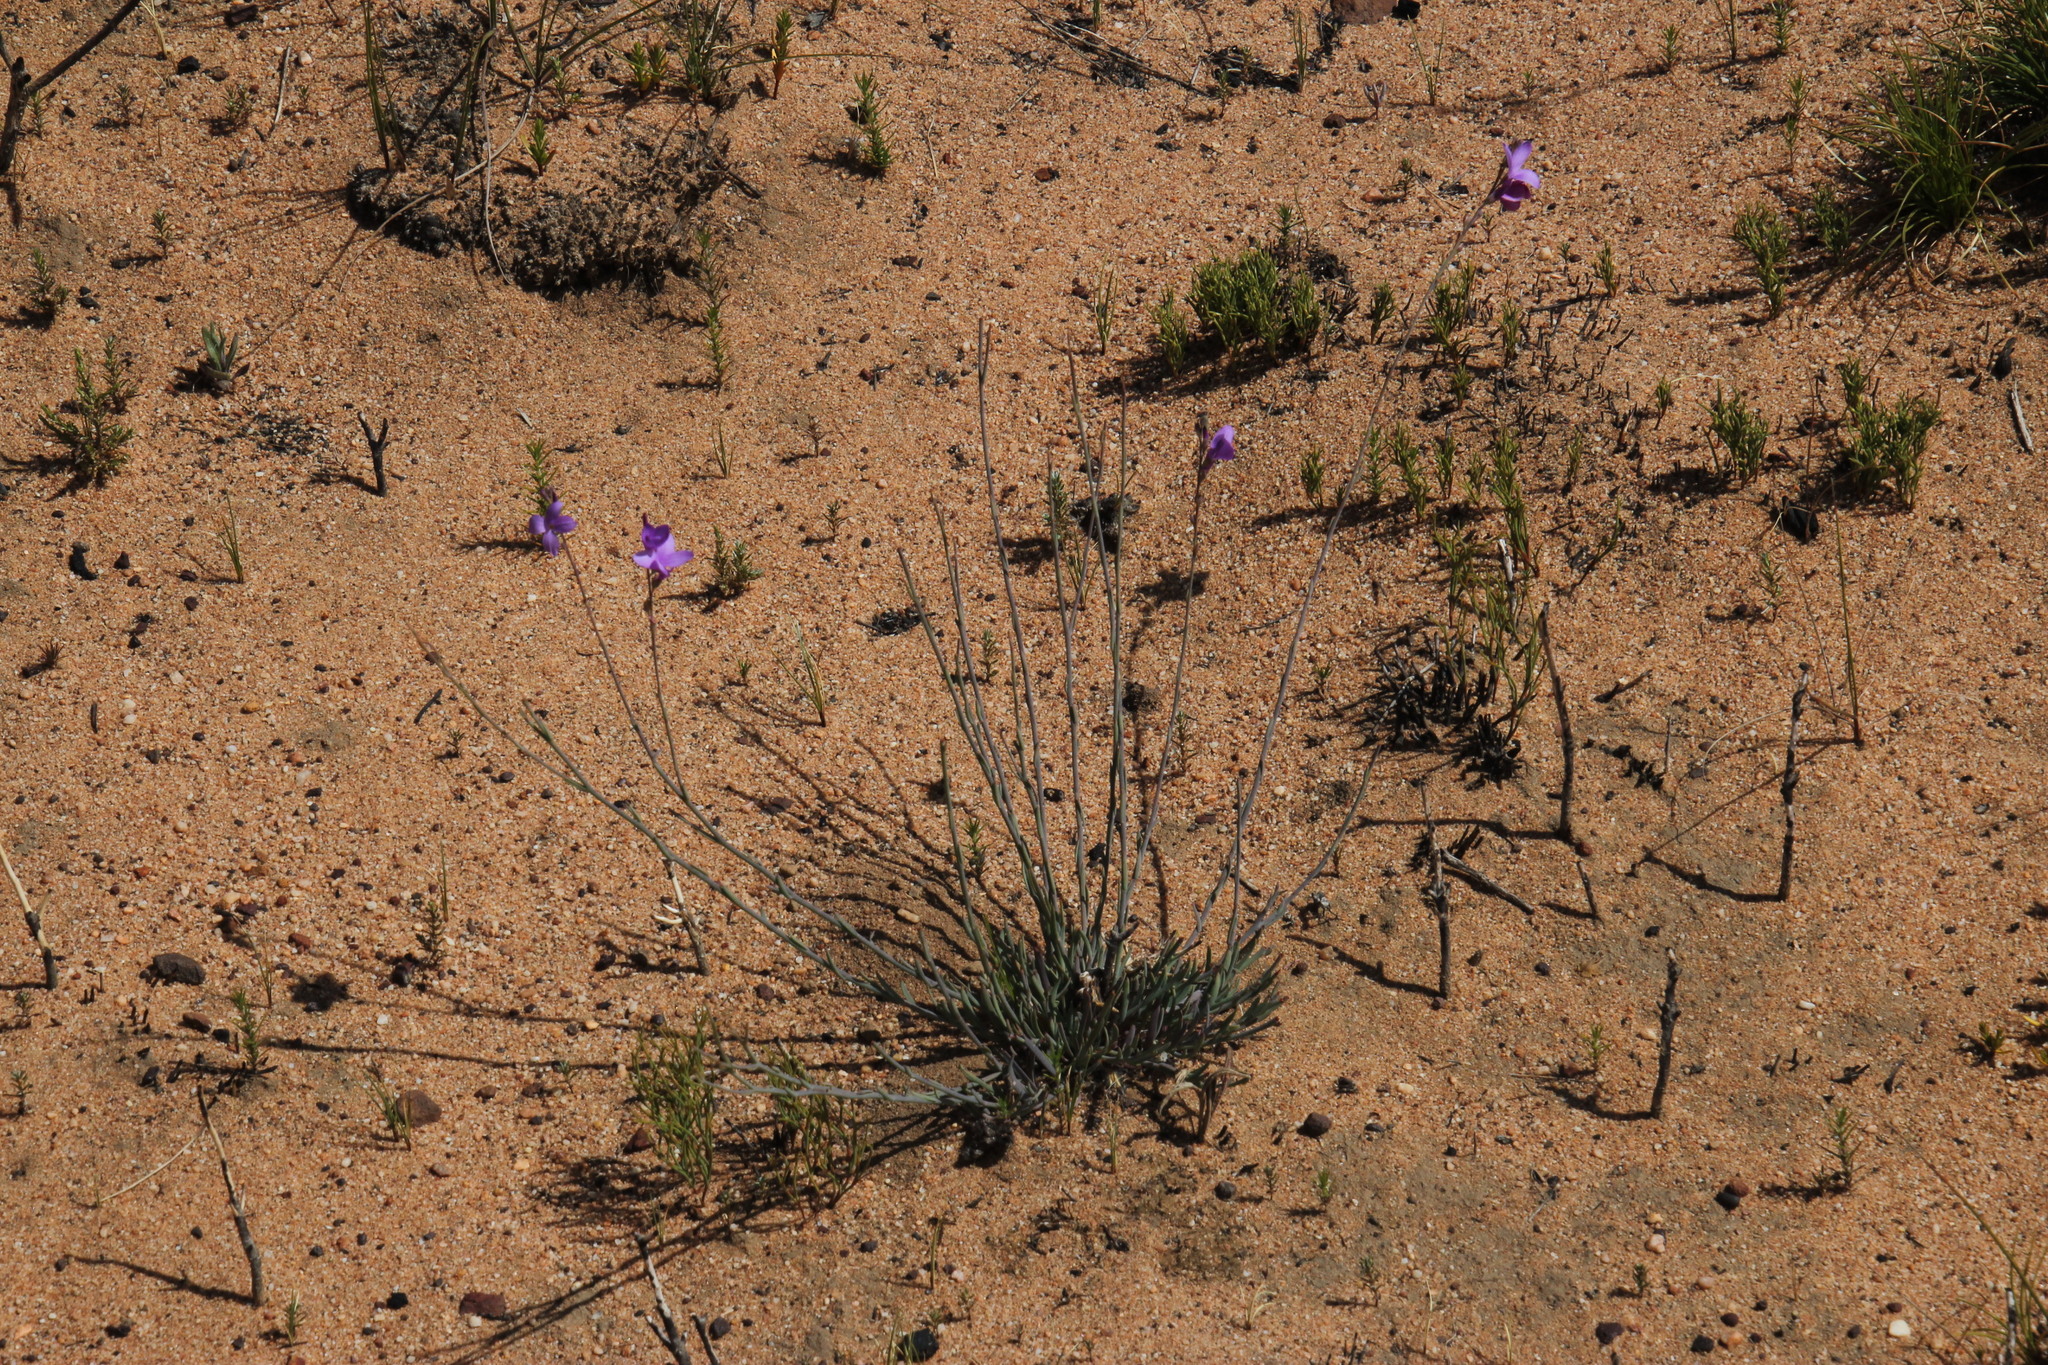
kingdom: Plantae
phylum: Tracheophyta
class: Magnoliopsida
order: Brassicales
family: Brassicaceae
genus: Heliophila
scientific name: Heliophila juncea
